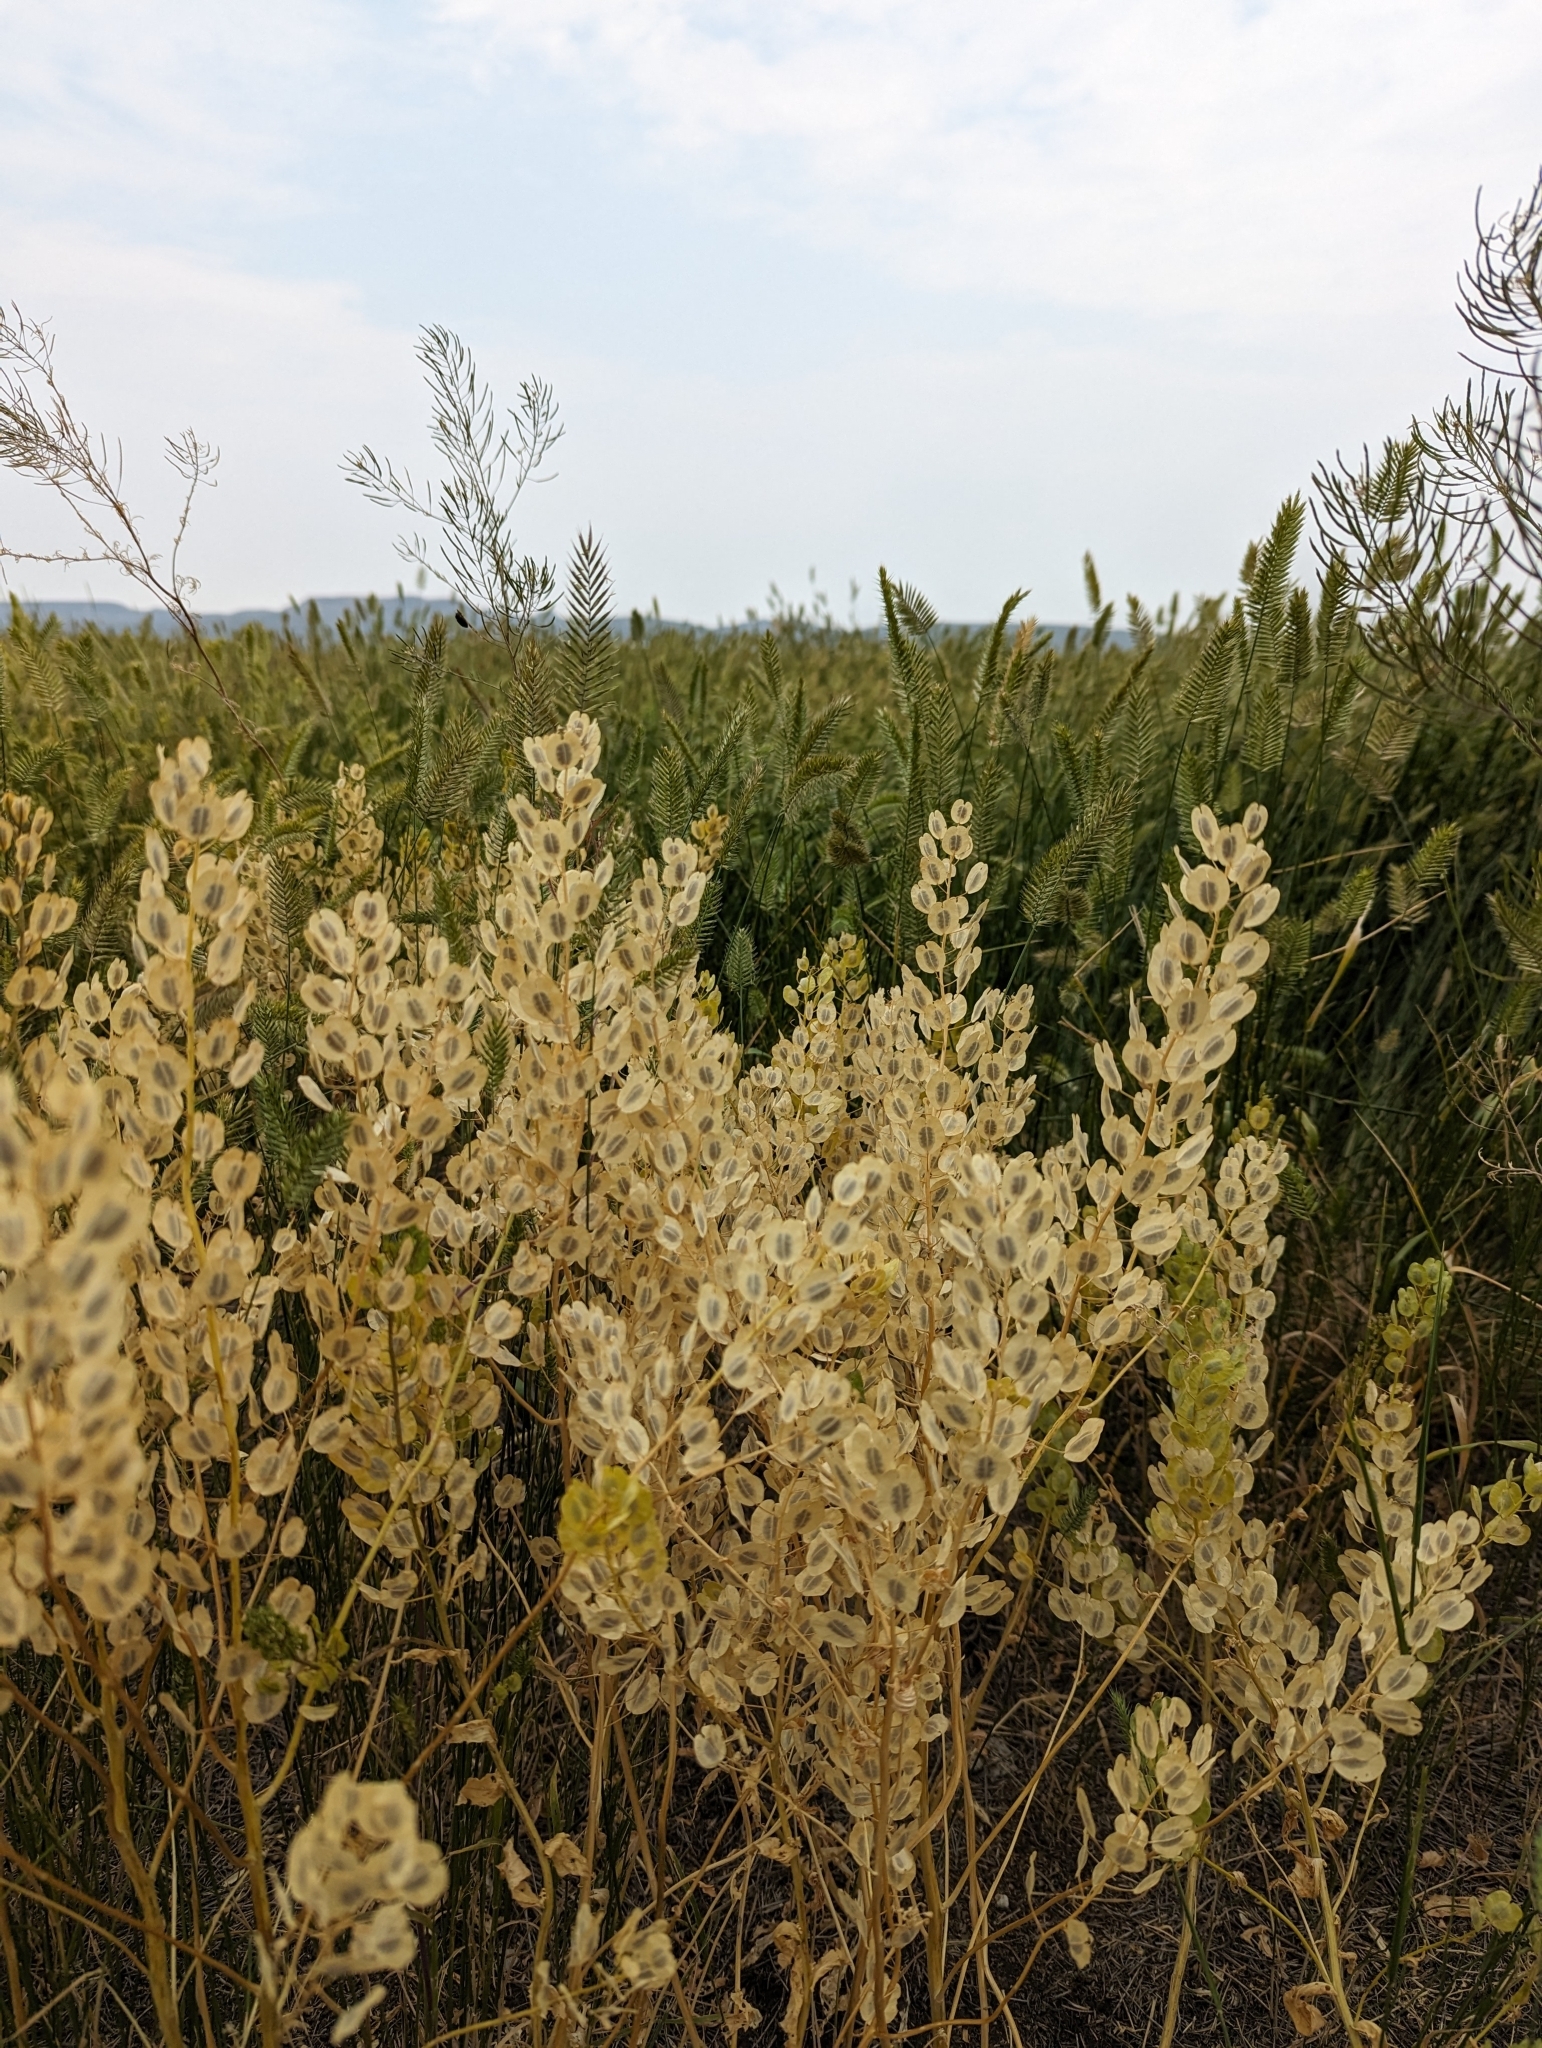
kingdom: Plantae
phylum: Tracheophyta
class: Magnoliopsida
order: Brassicales
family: Brassicaceae
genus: Thlaspi
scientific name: Thlaspi arvense
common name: Field pennycress
